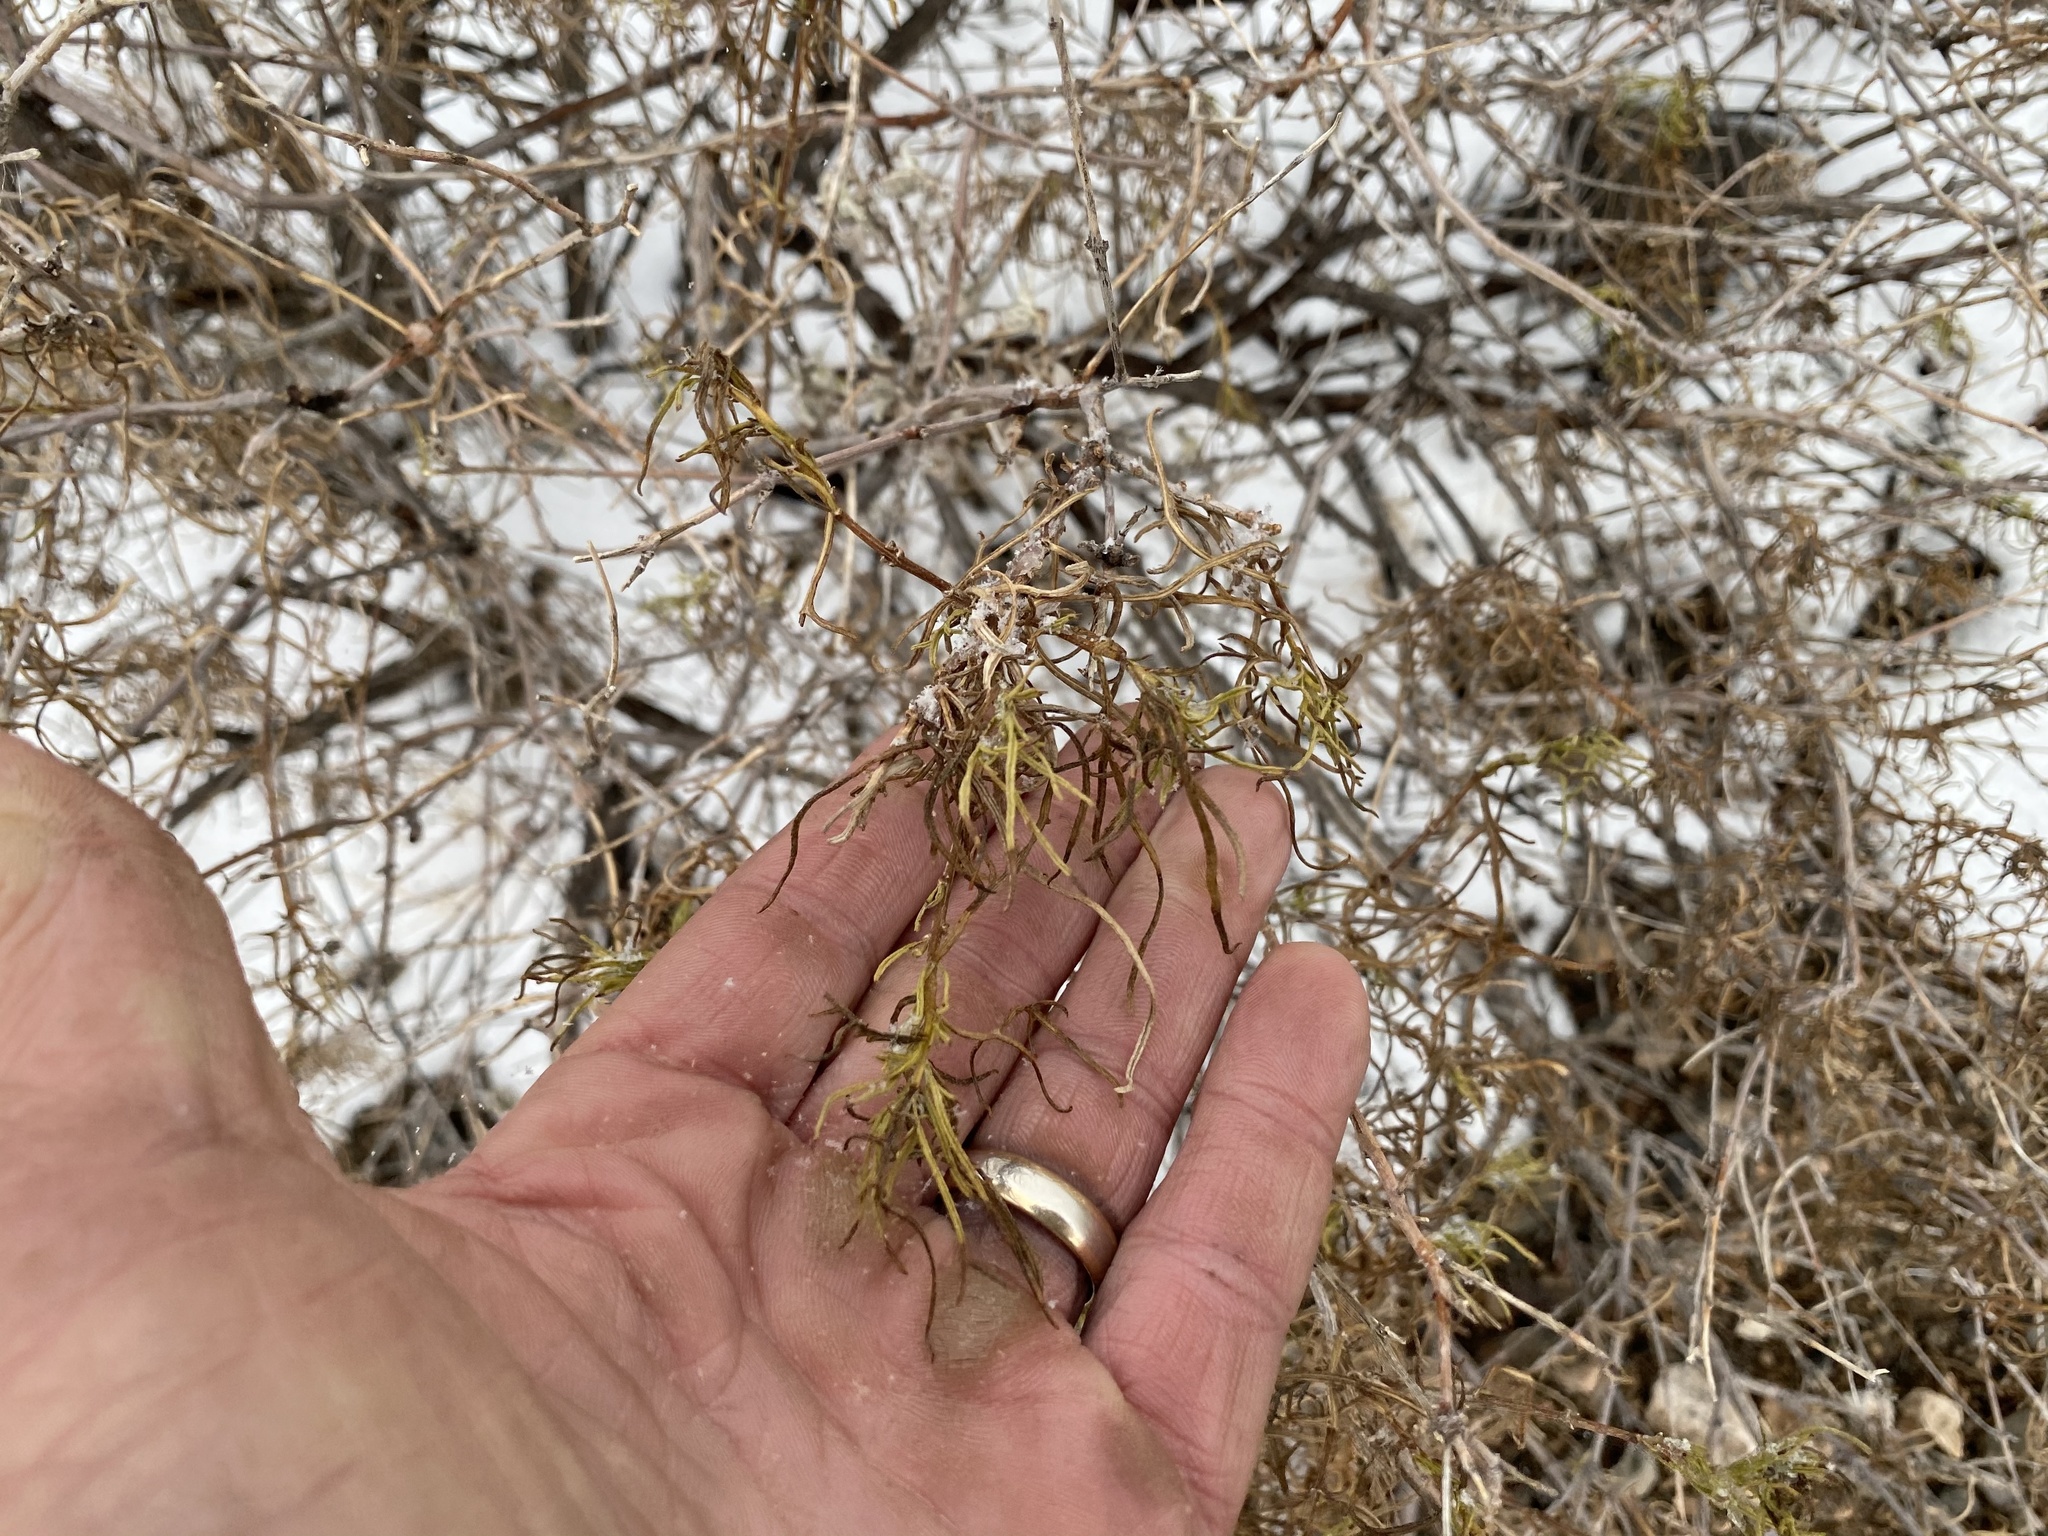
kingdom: Plantae
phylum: Tracheophyta
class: Magnoliopsida
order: Asterales
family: Asteraceae
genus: Sidneya
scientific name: Sidneya tenuifolia
